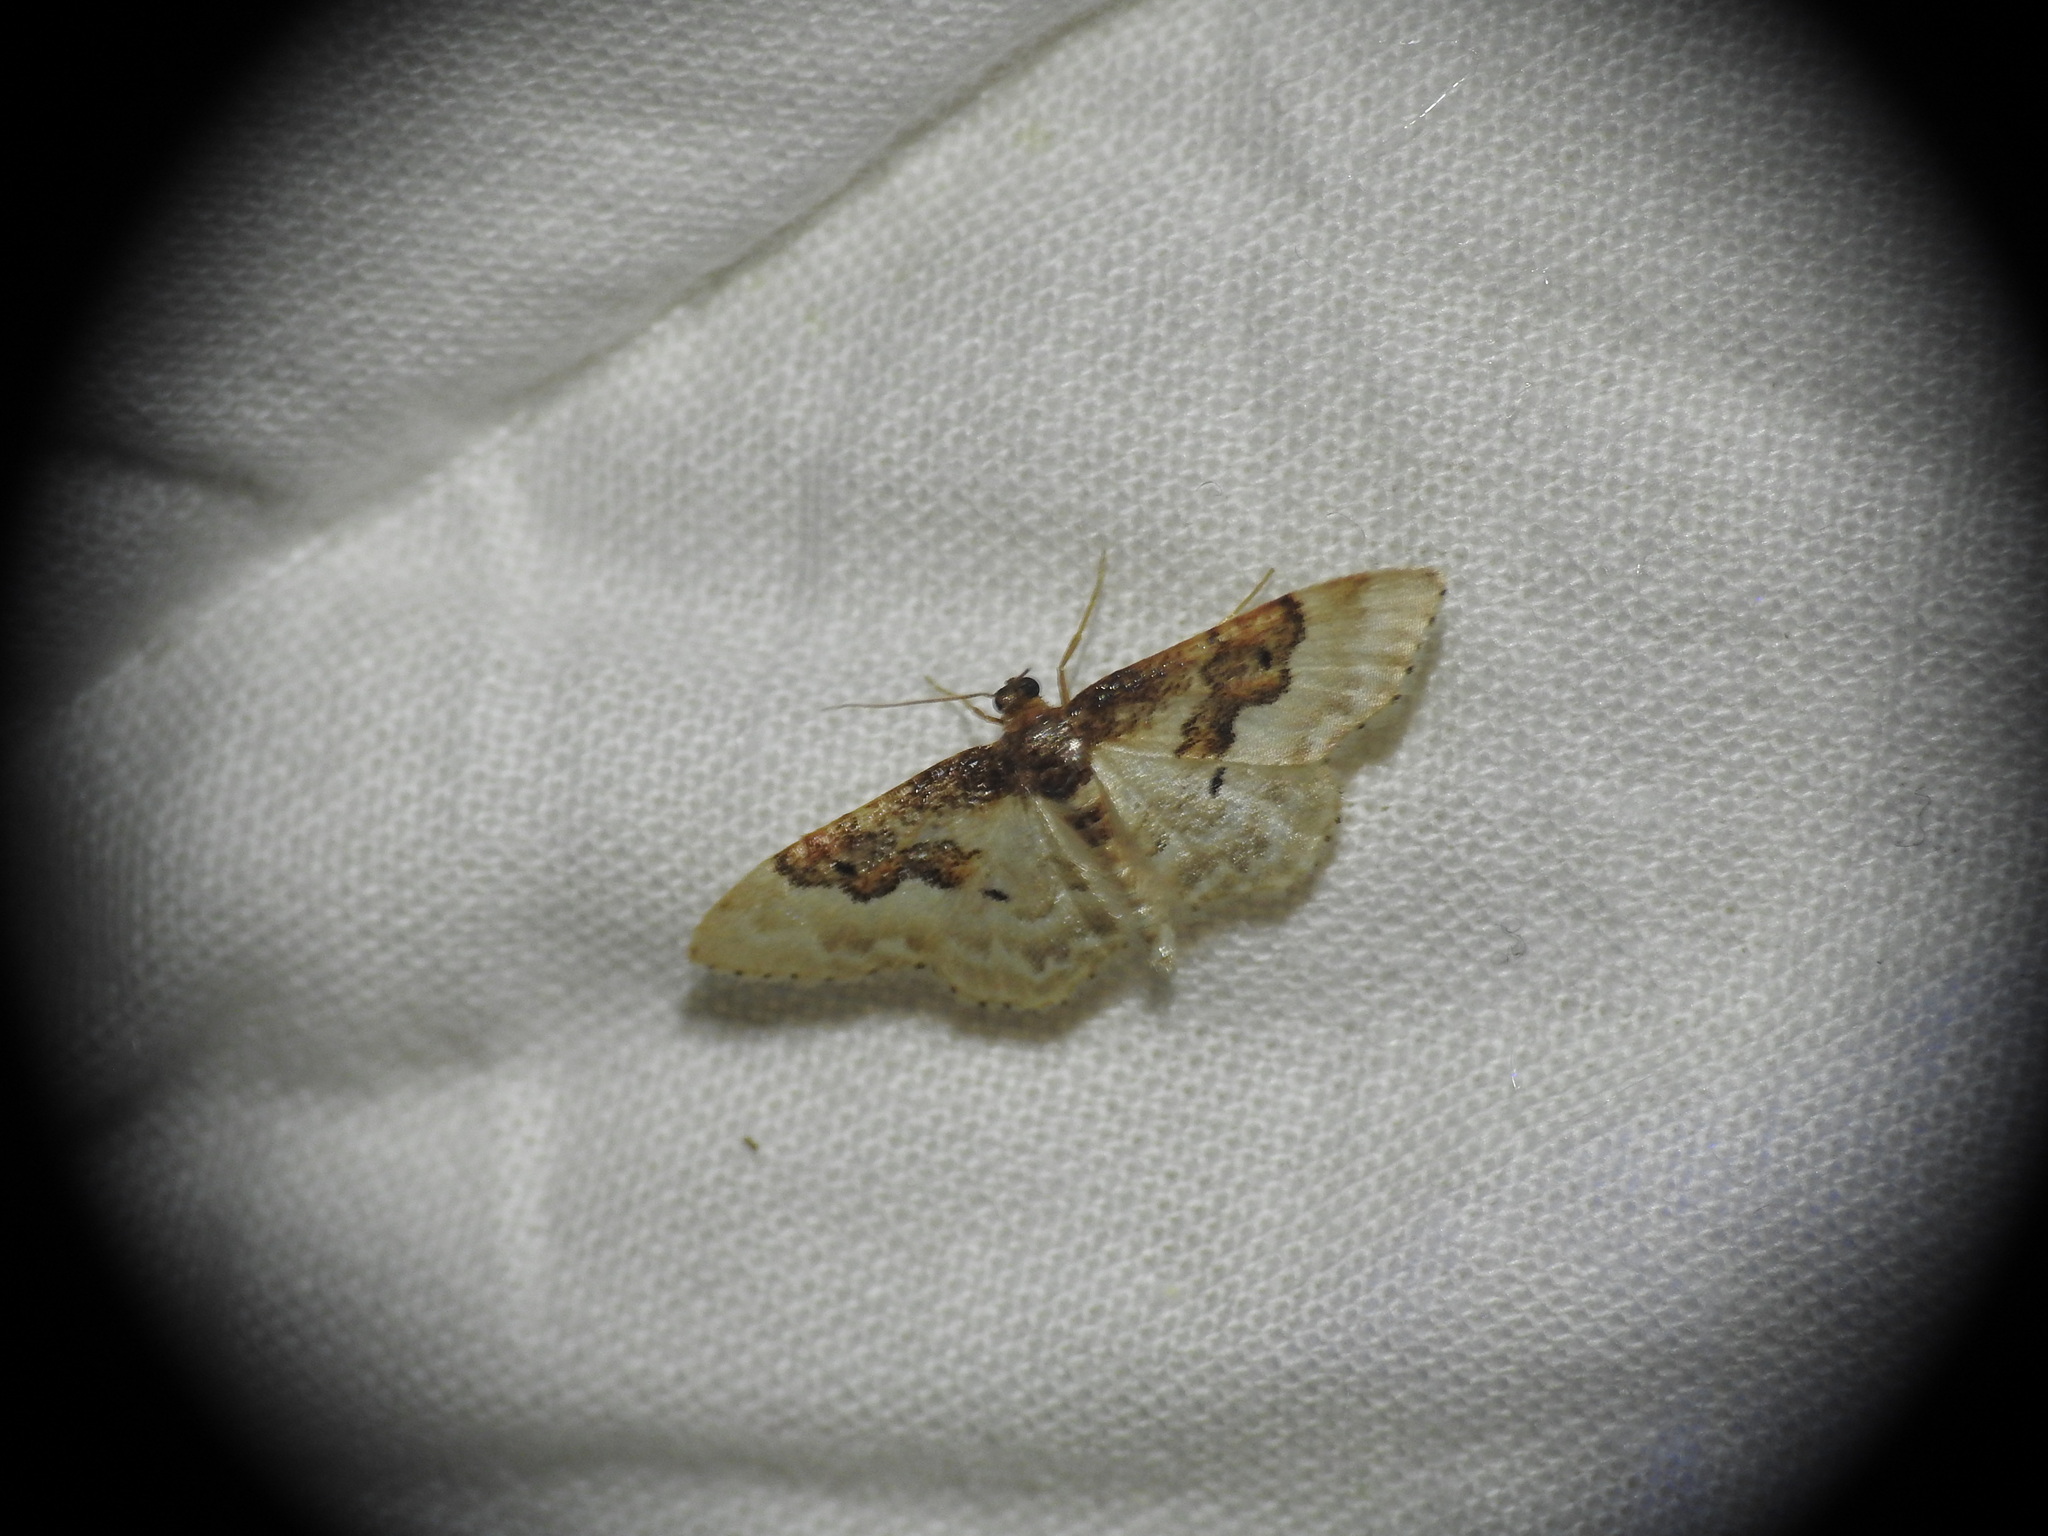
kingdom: Animalia
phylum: Arthropoda
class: Insecta
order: Lepidoptera
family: Geometridae
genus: Idaea
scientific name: Idaea rusticata
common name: Least carpet
